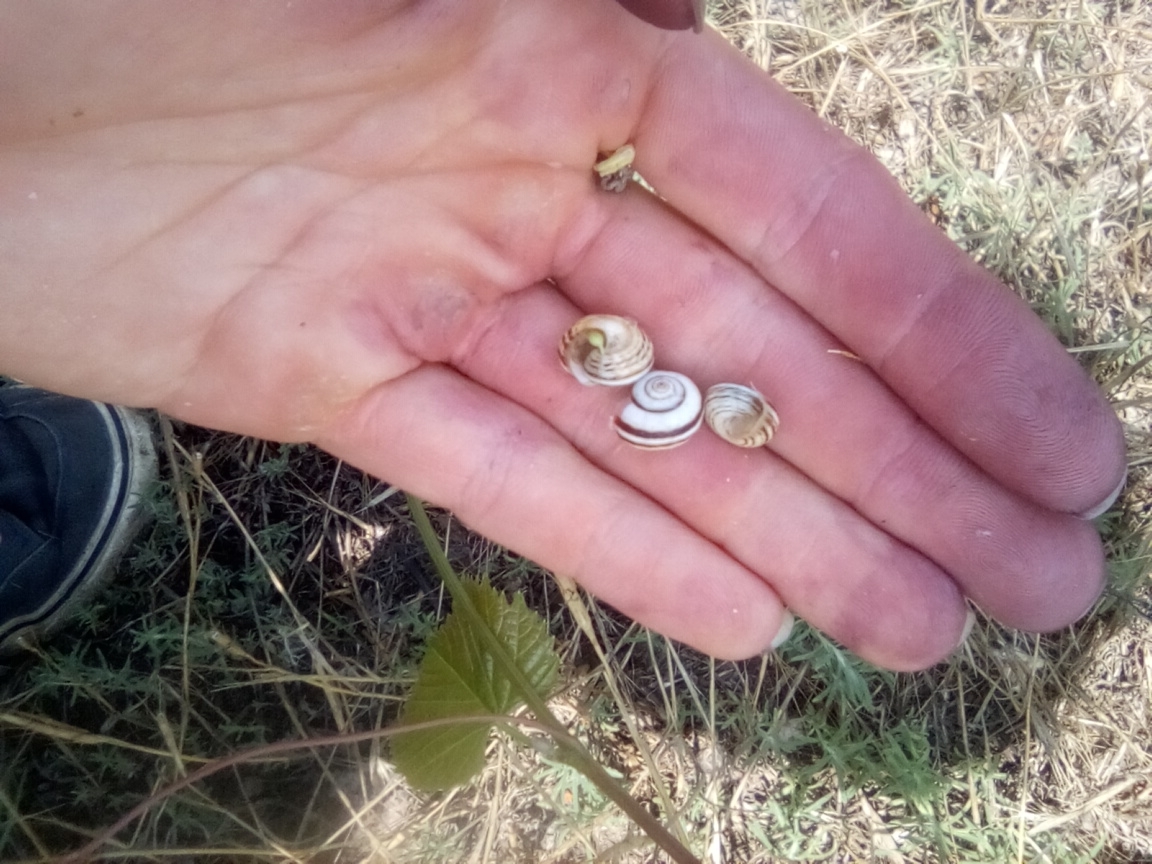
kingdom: Animalia
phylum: Mollusca
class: Gastropoda
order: Stylommatophora
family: Geomitridae
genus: Xeropicta
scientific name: Xeropicta krynickii
